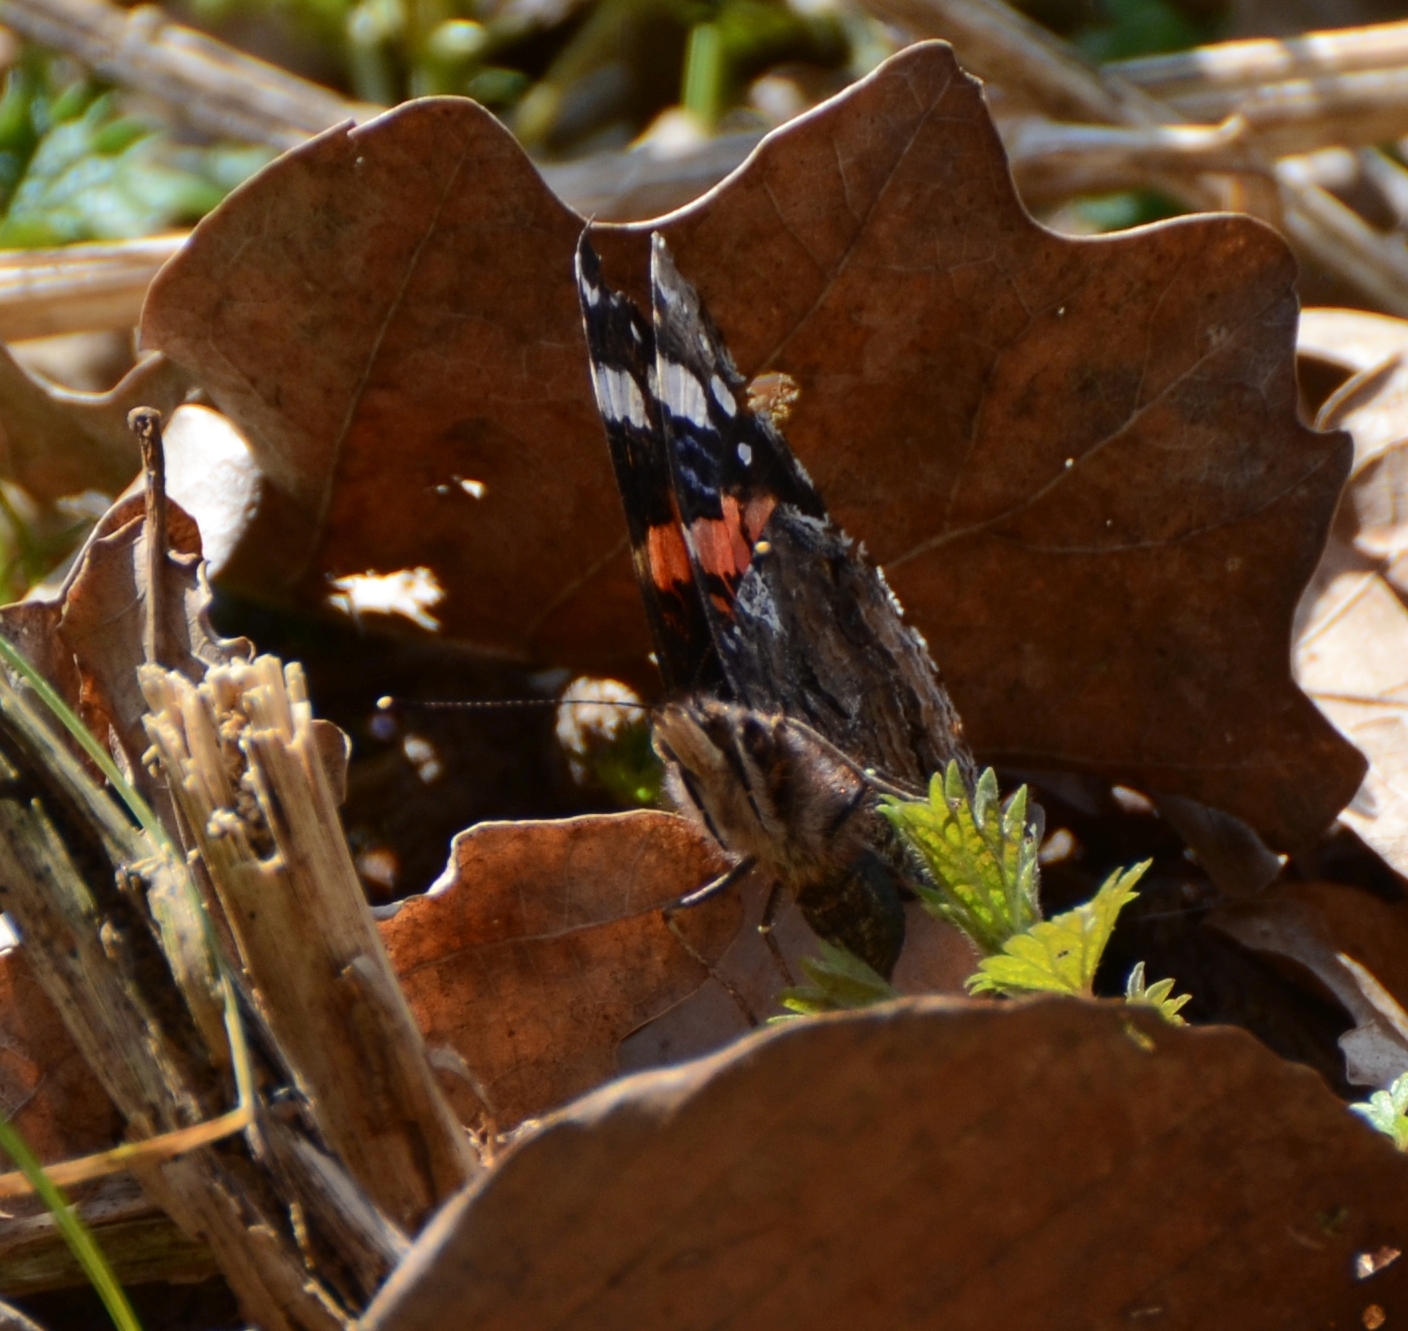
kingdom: Animalia
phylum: Arthropoda
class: Insecta
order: Lepidoptera
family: Nymphalidae
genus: Vanessa
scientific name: Vanessa atalanta
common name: Red admiral
